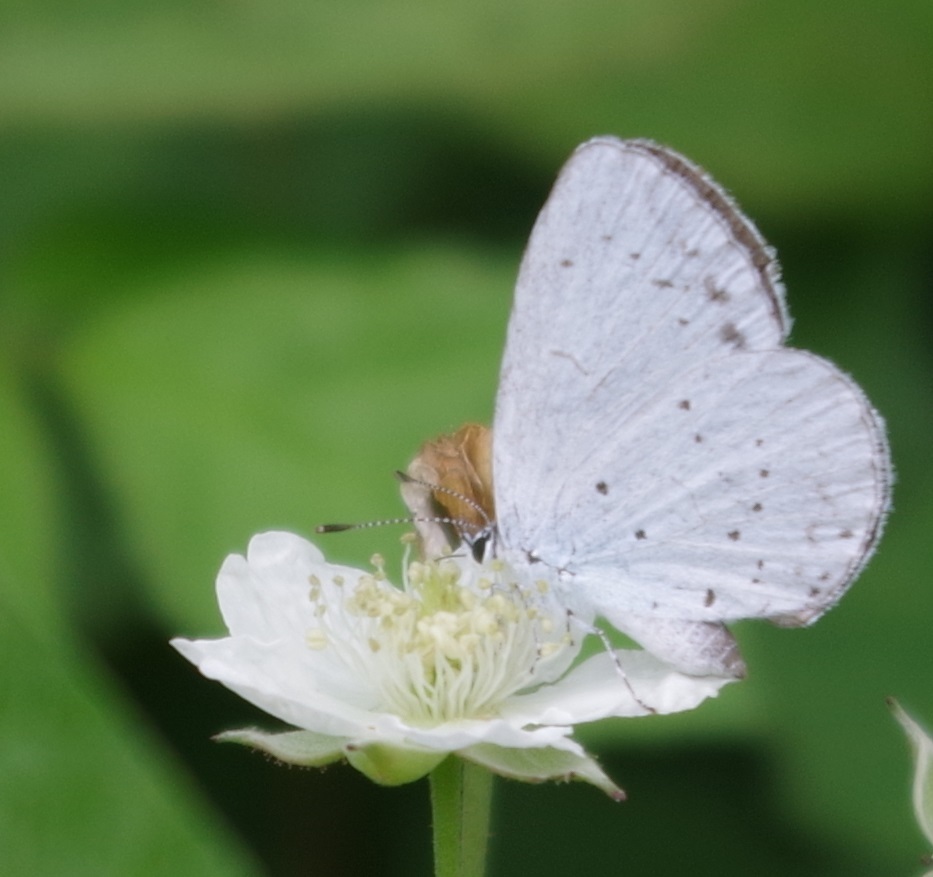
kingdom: Animalia
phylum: Arthropoda
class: Insecta
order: Lepidoptera
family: Lycaenidae
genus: Celastrina
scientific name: Celastrina argiolus
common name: Holly blue
